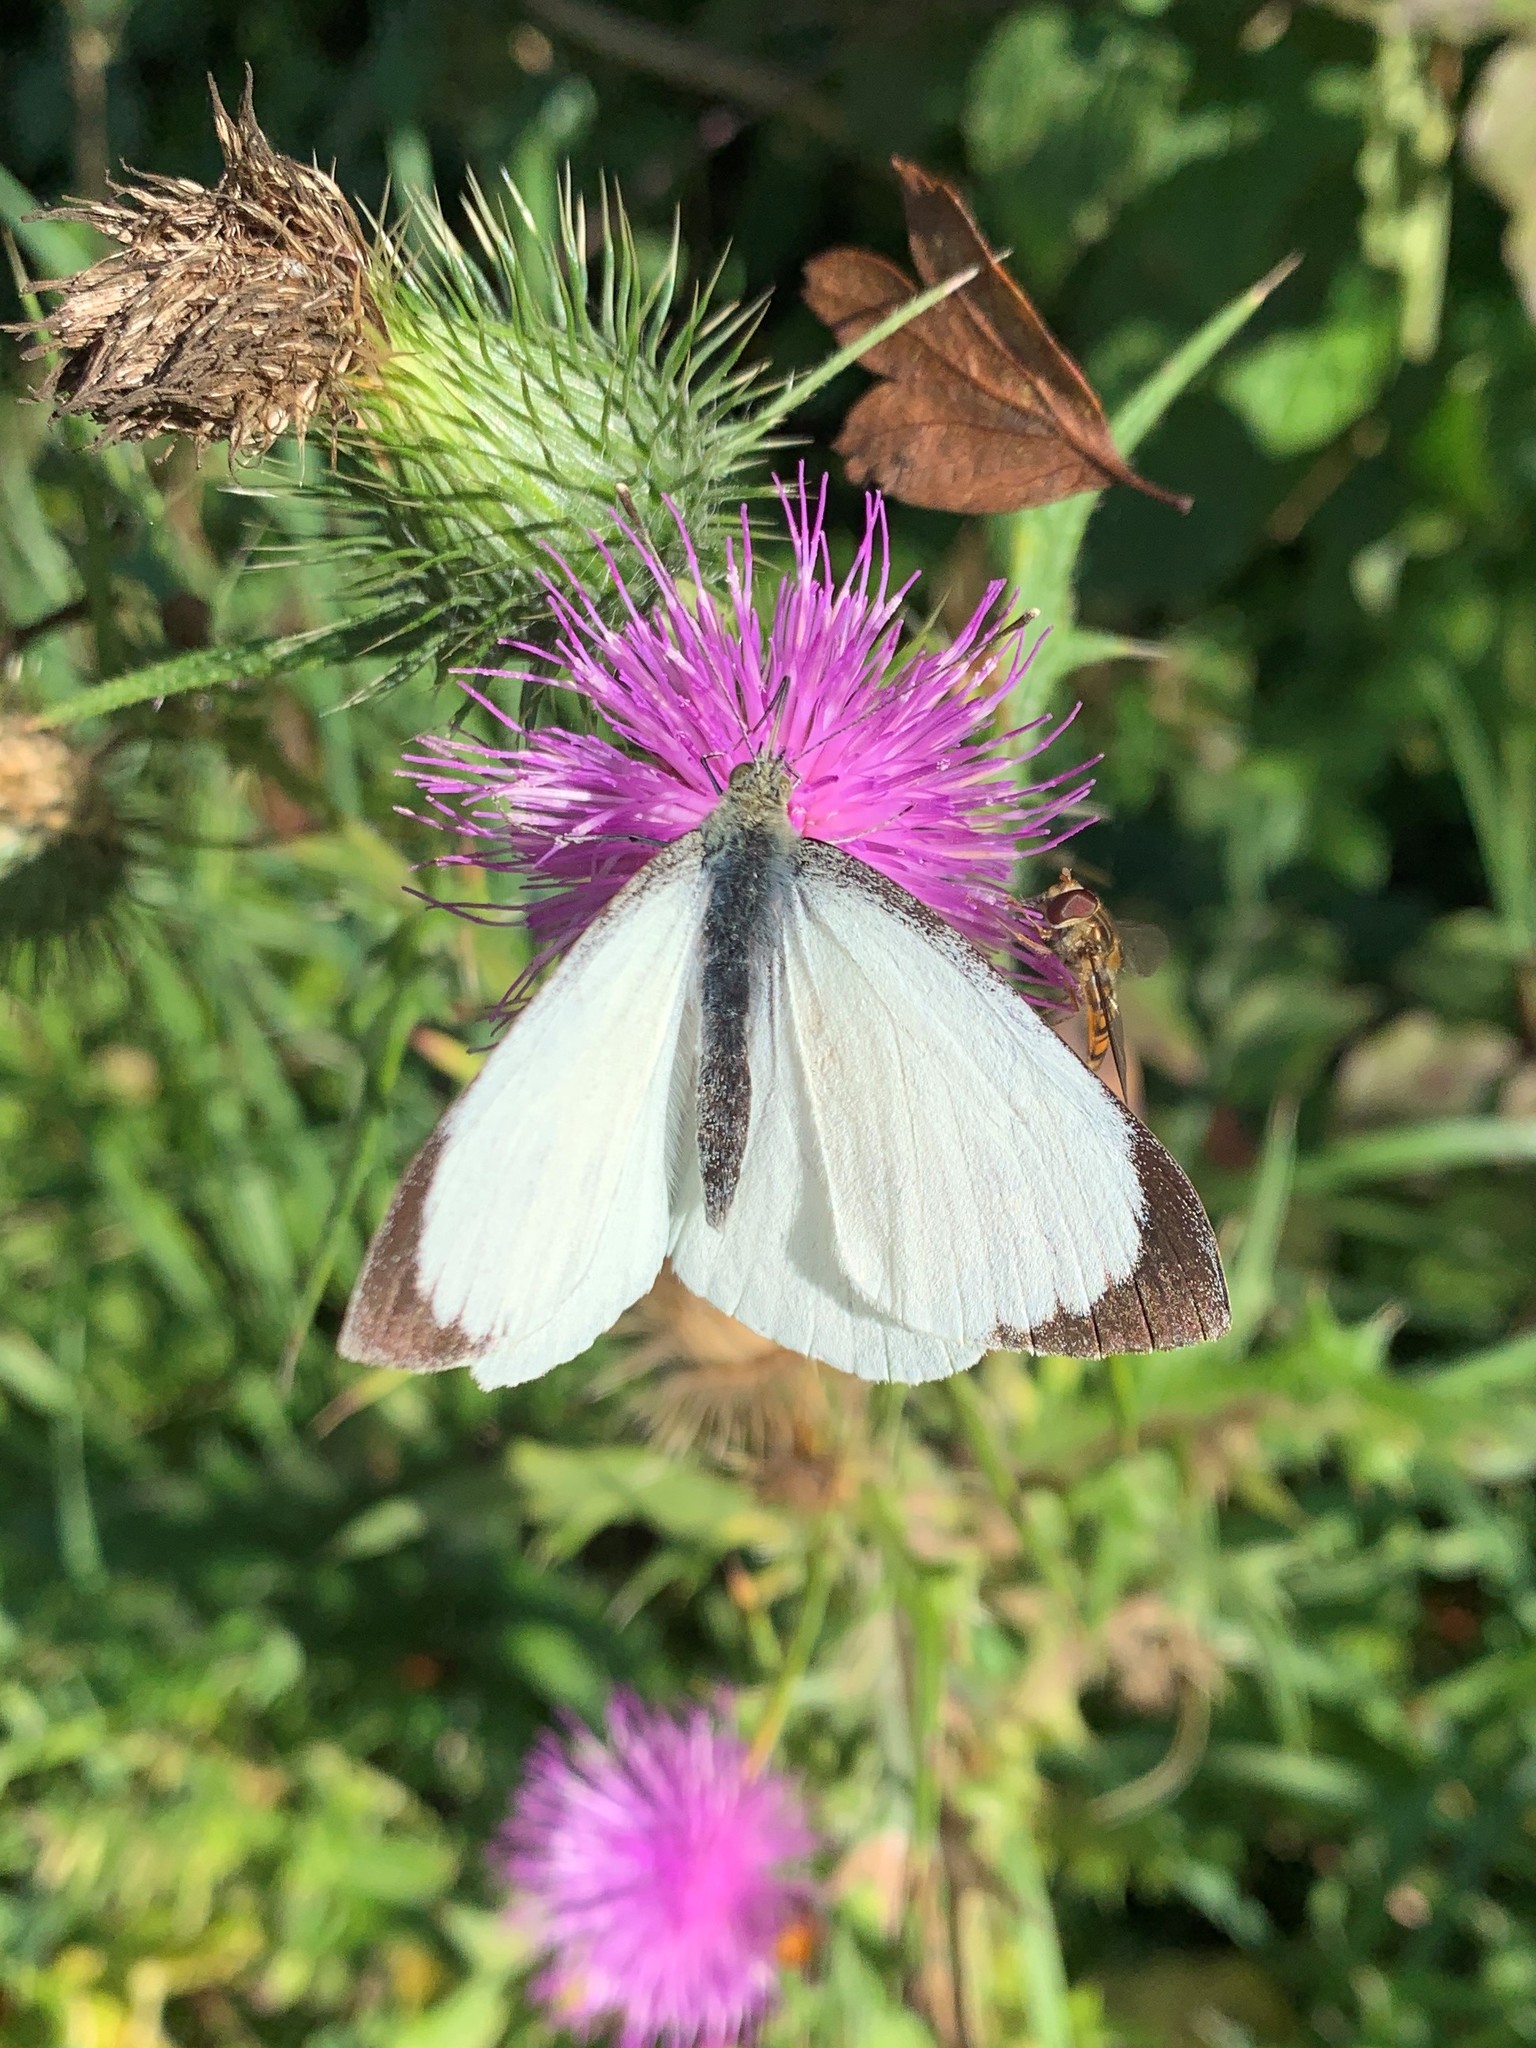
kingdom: Animalia
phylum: Arthropoda
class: Insecta
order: Lepidoptera
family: Pieridae
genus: Pieris
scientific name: Pieris brassicae
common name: Large white
